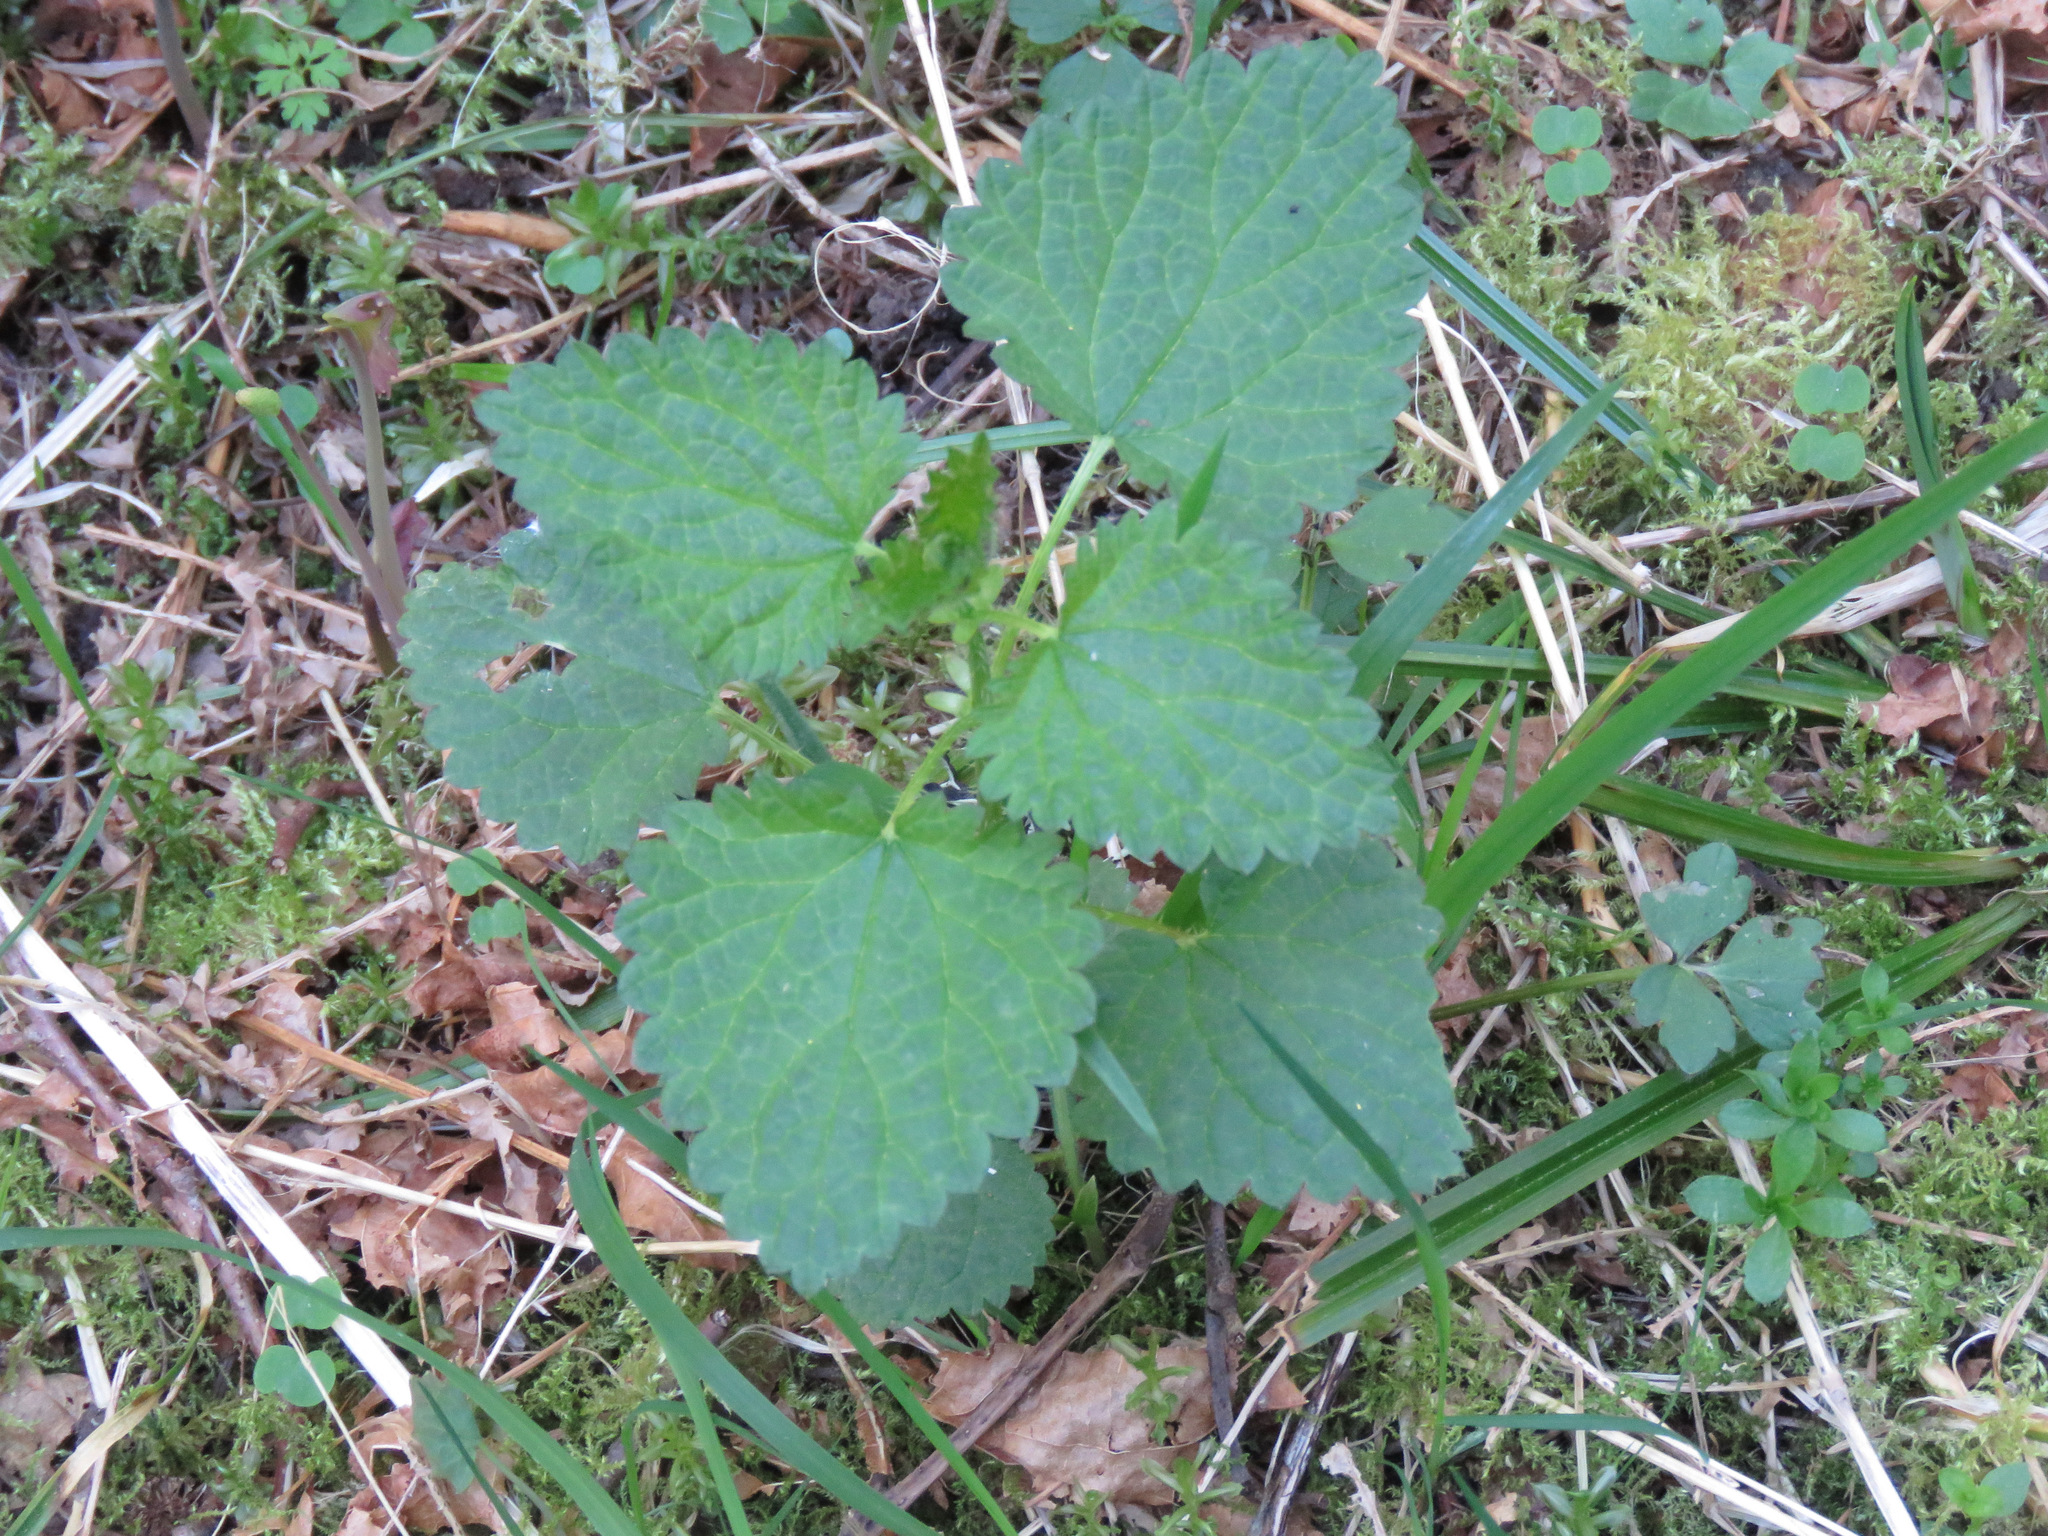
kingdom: Plantae
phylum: Tracheophyta
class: Magnoliopsida
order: Rosales
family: Urticaceae
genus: Urtica
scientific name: Urtica dioica
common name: Common nettle
